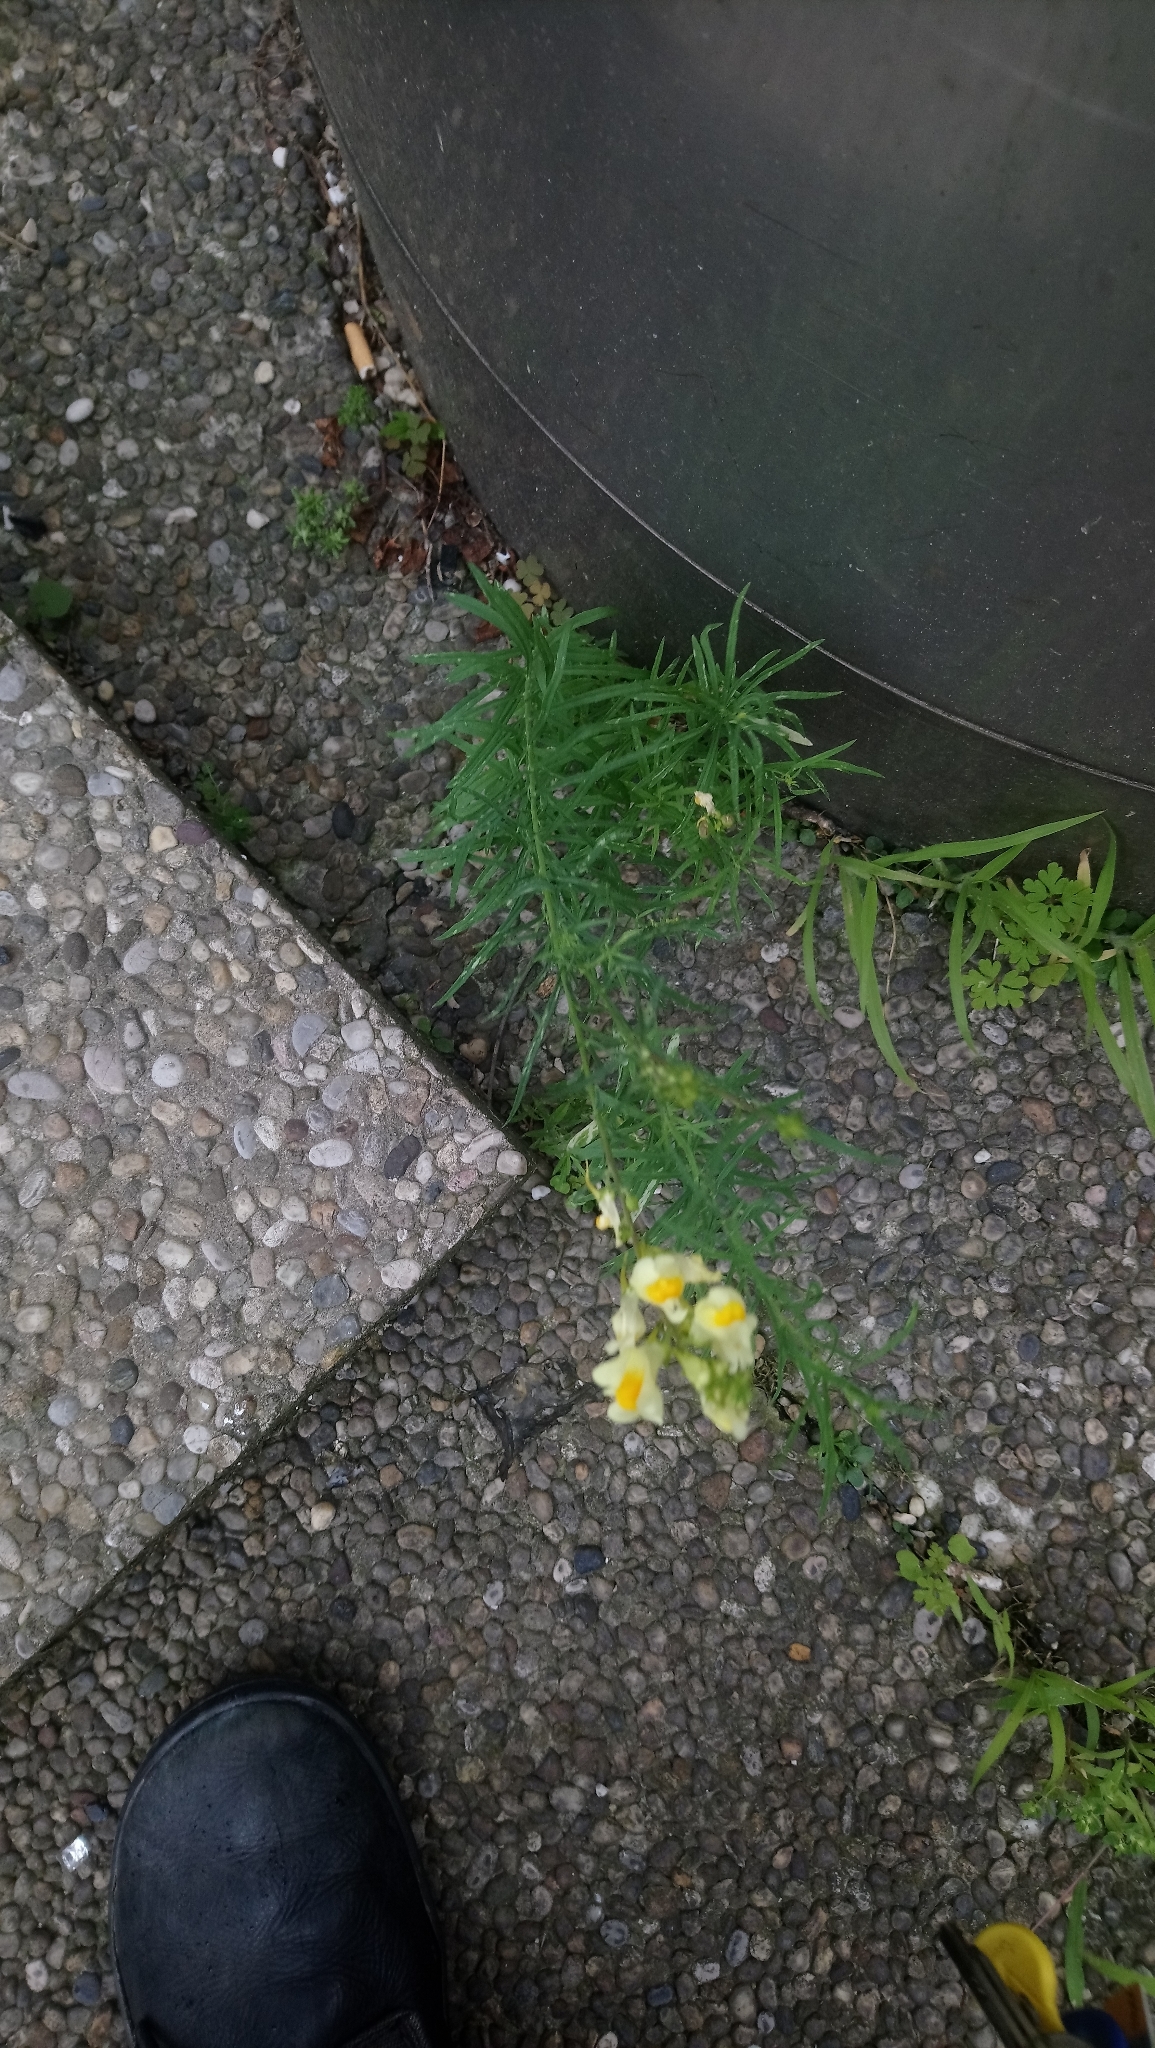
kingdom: Plantae
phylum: Tracheophyta
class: Magnoliopsida
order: Lamiales
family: Plantaginaceae
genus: Linaria
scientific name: Linaria vulgaris
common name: Butter and eggs
